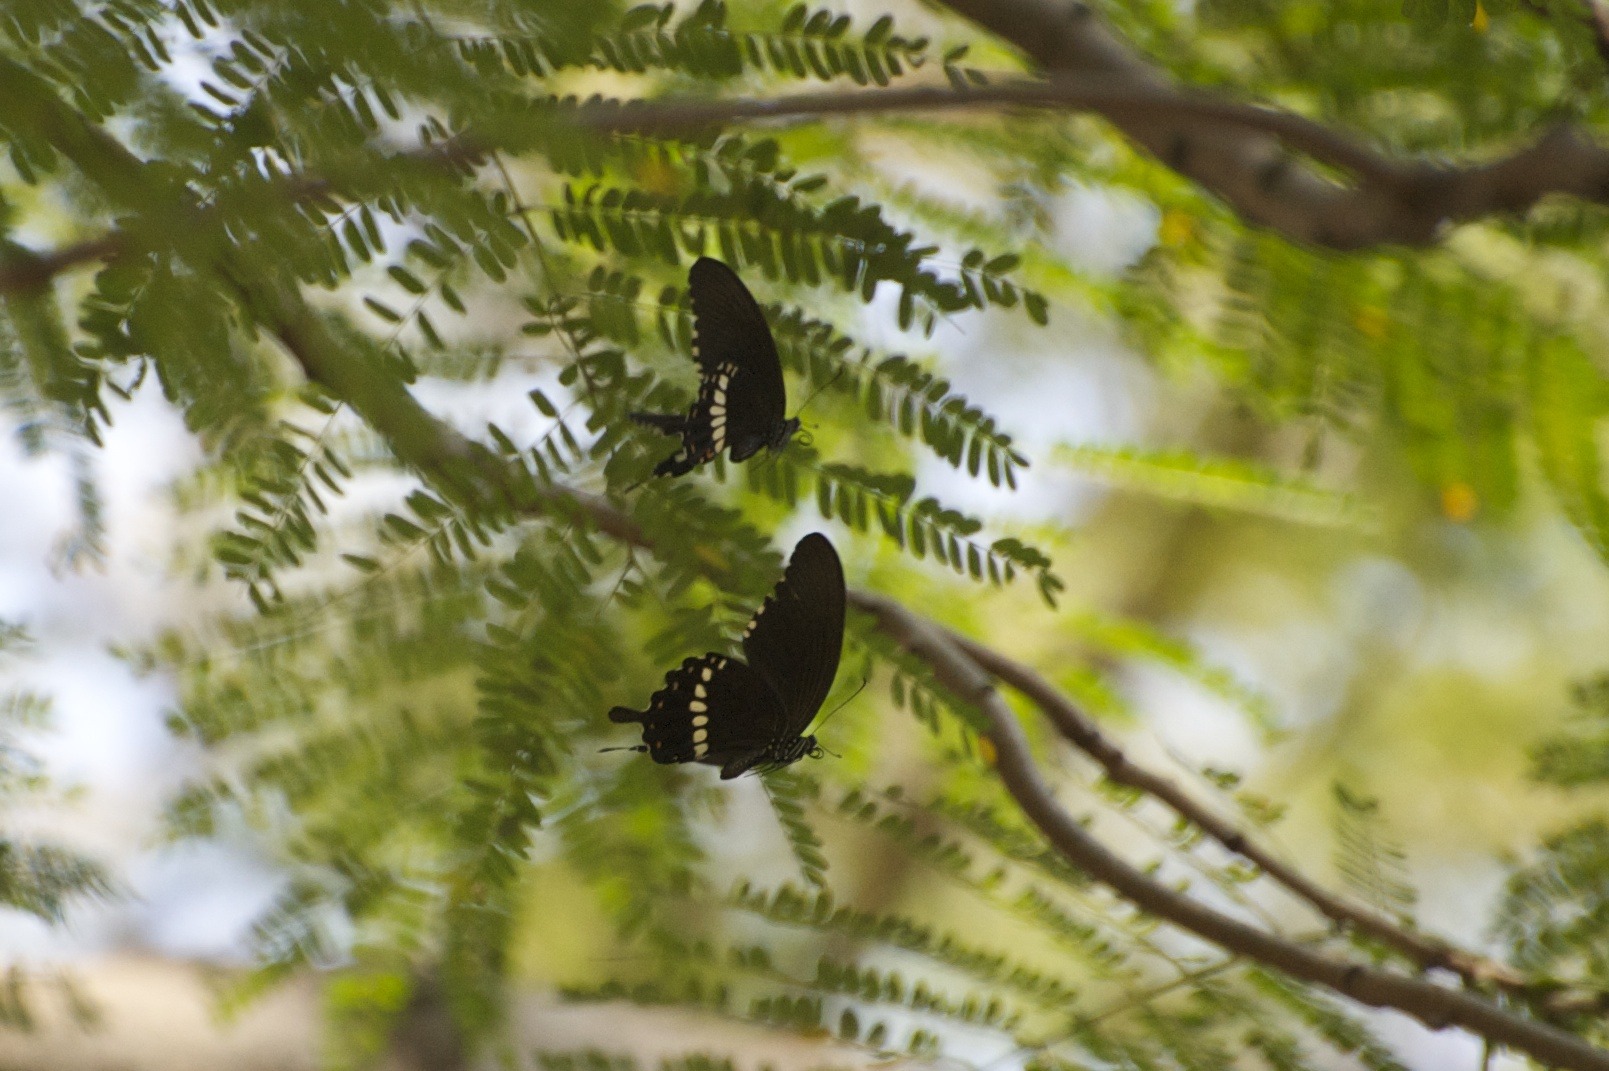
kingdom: Animalia
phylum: Arthropoda
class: Insecta
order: Lepidoptera
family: Papilionidae
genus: Papilio
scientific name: Papilio polytes
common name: Common mormon
